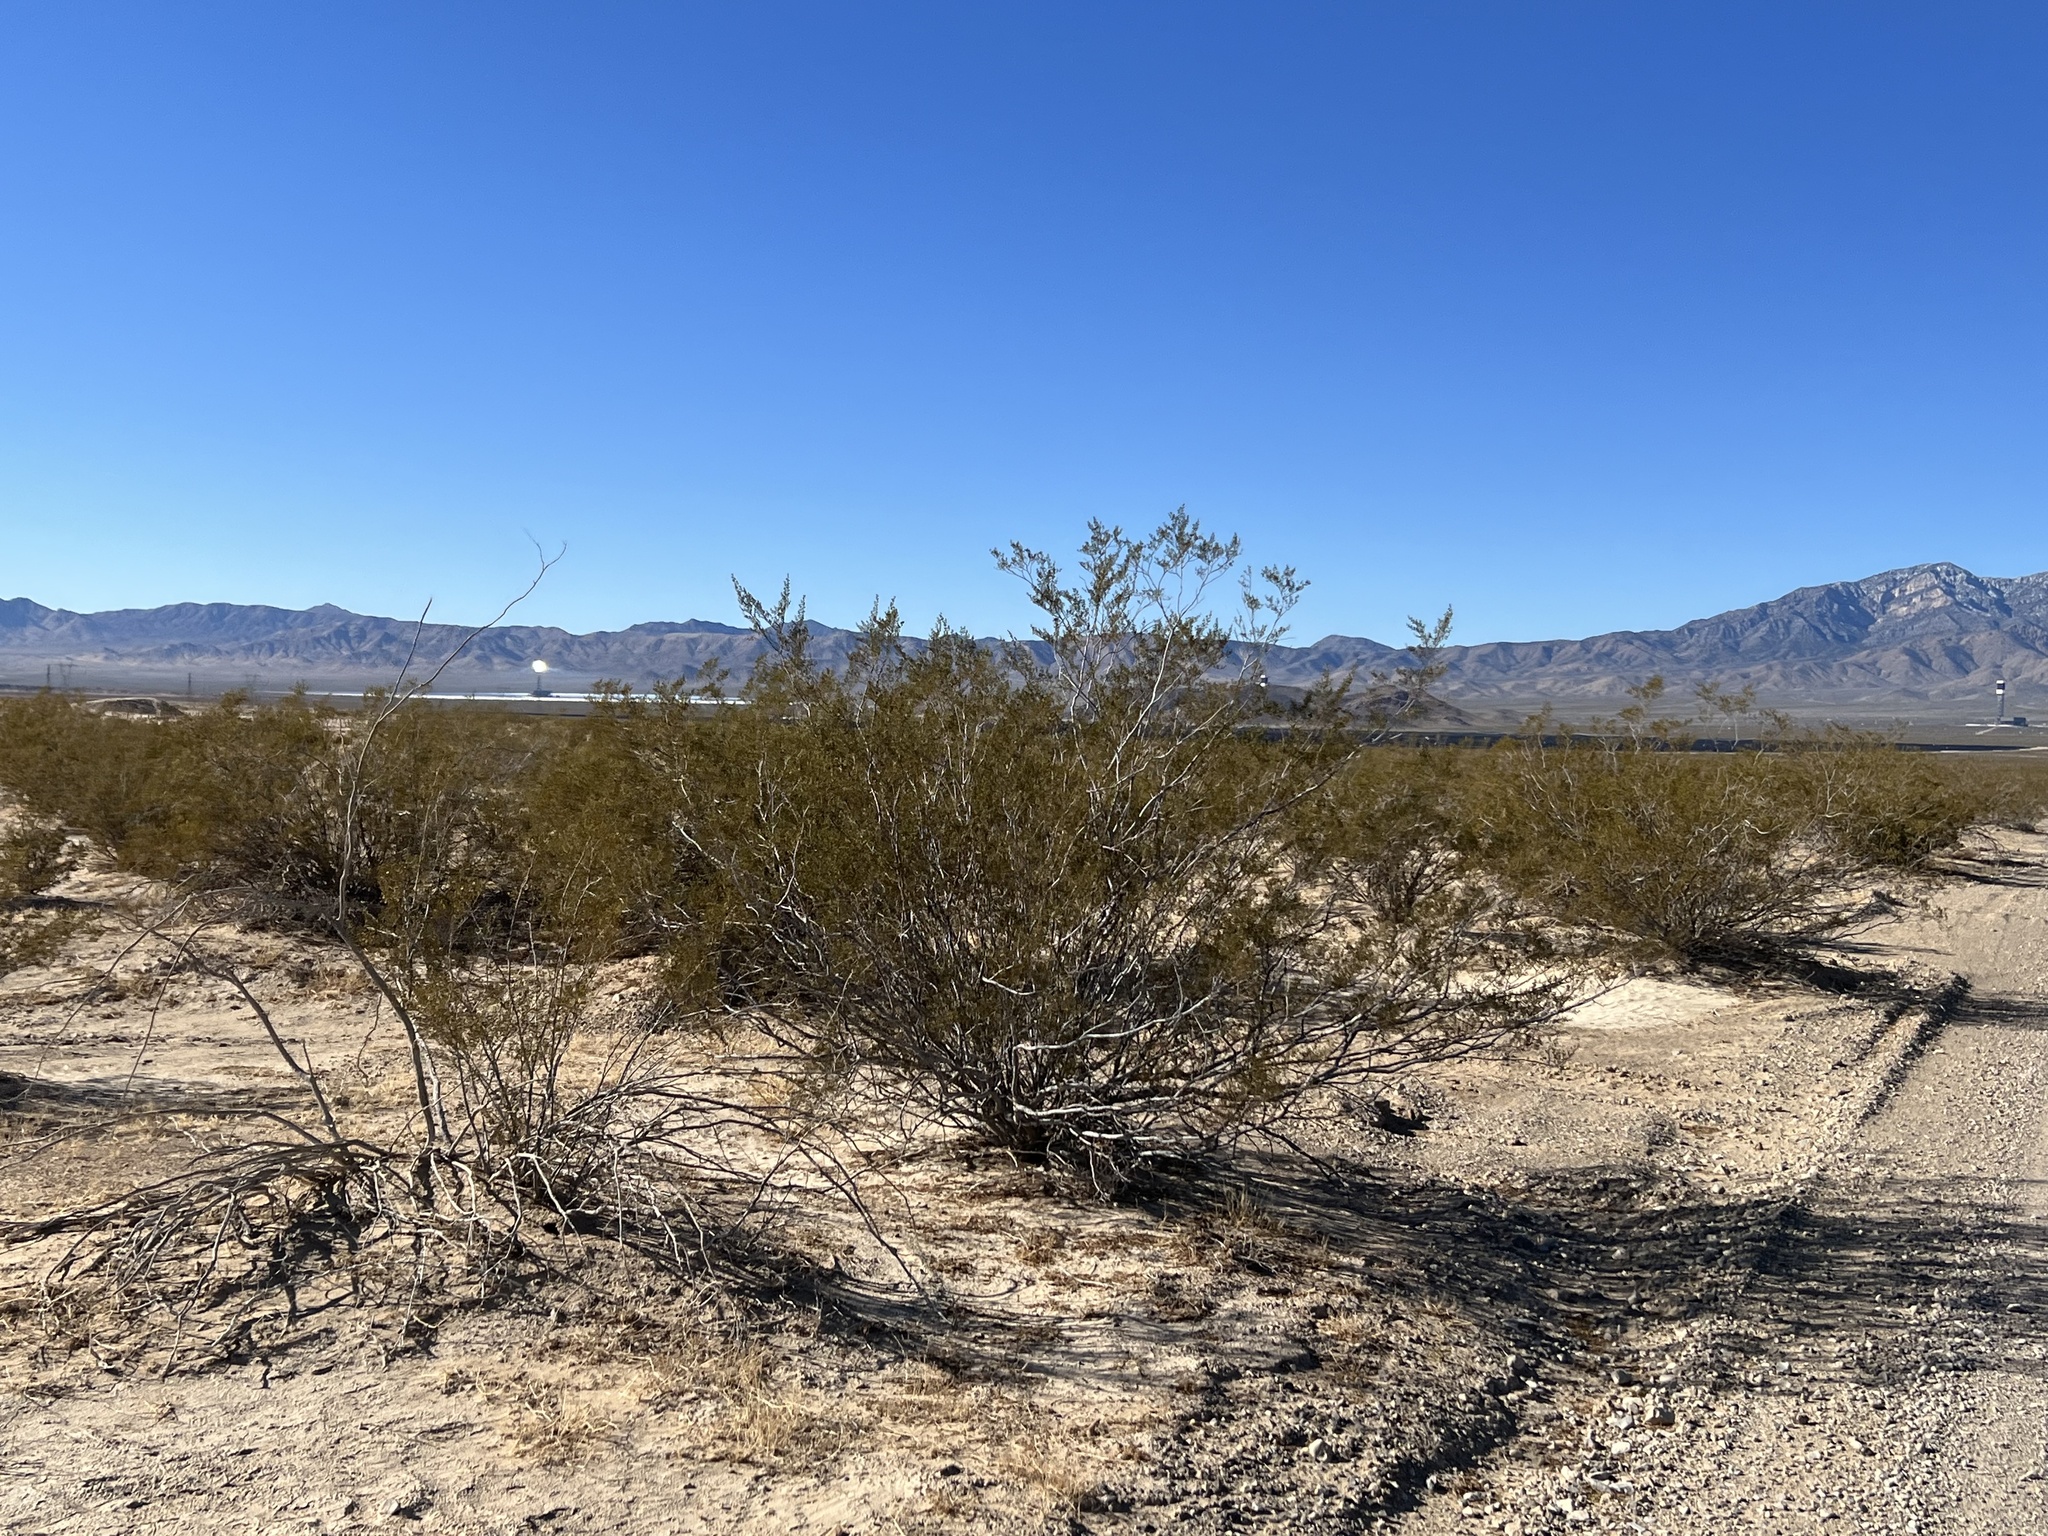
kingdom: Plantae
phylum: Tracheophyta
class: Magnoliopsida
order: Zygophyllales
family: Zygophyllaceae
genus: Larrea
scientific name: Larrea tridentata
